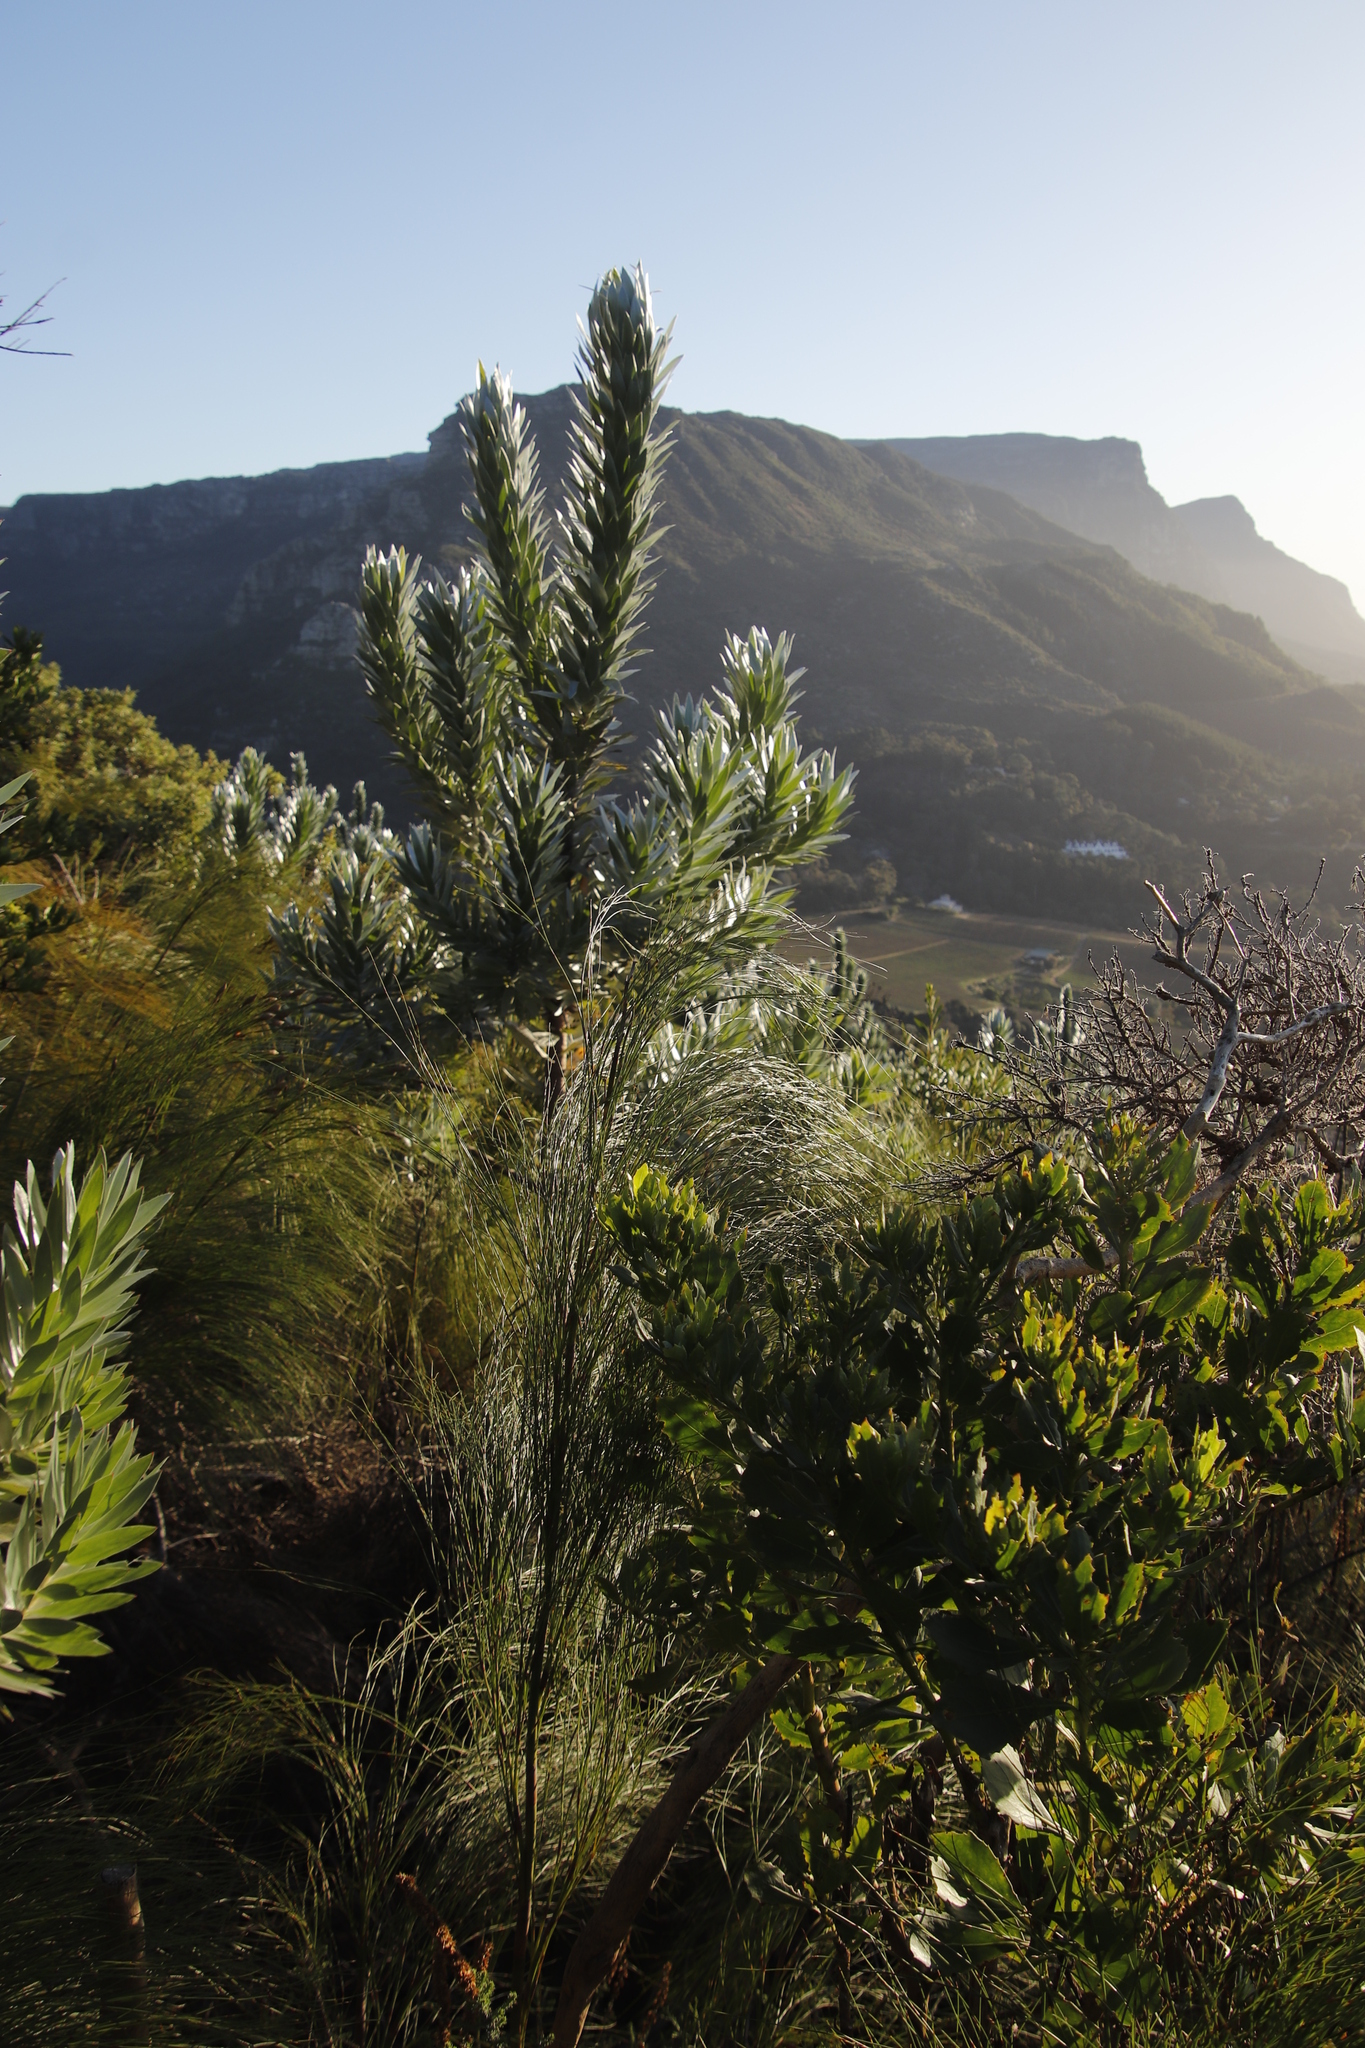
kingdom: Plantae
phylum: Tracheophyta
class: Magnoliopsida
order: Proteales
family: Proteaceae
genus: Leucadendron
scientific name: Leucadendron argenteum
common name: Cape silver tree
